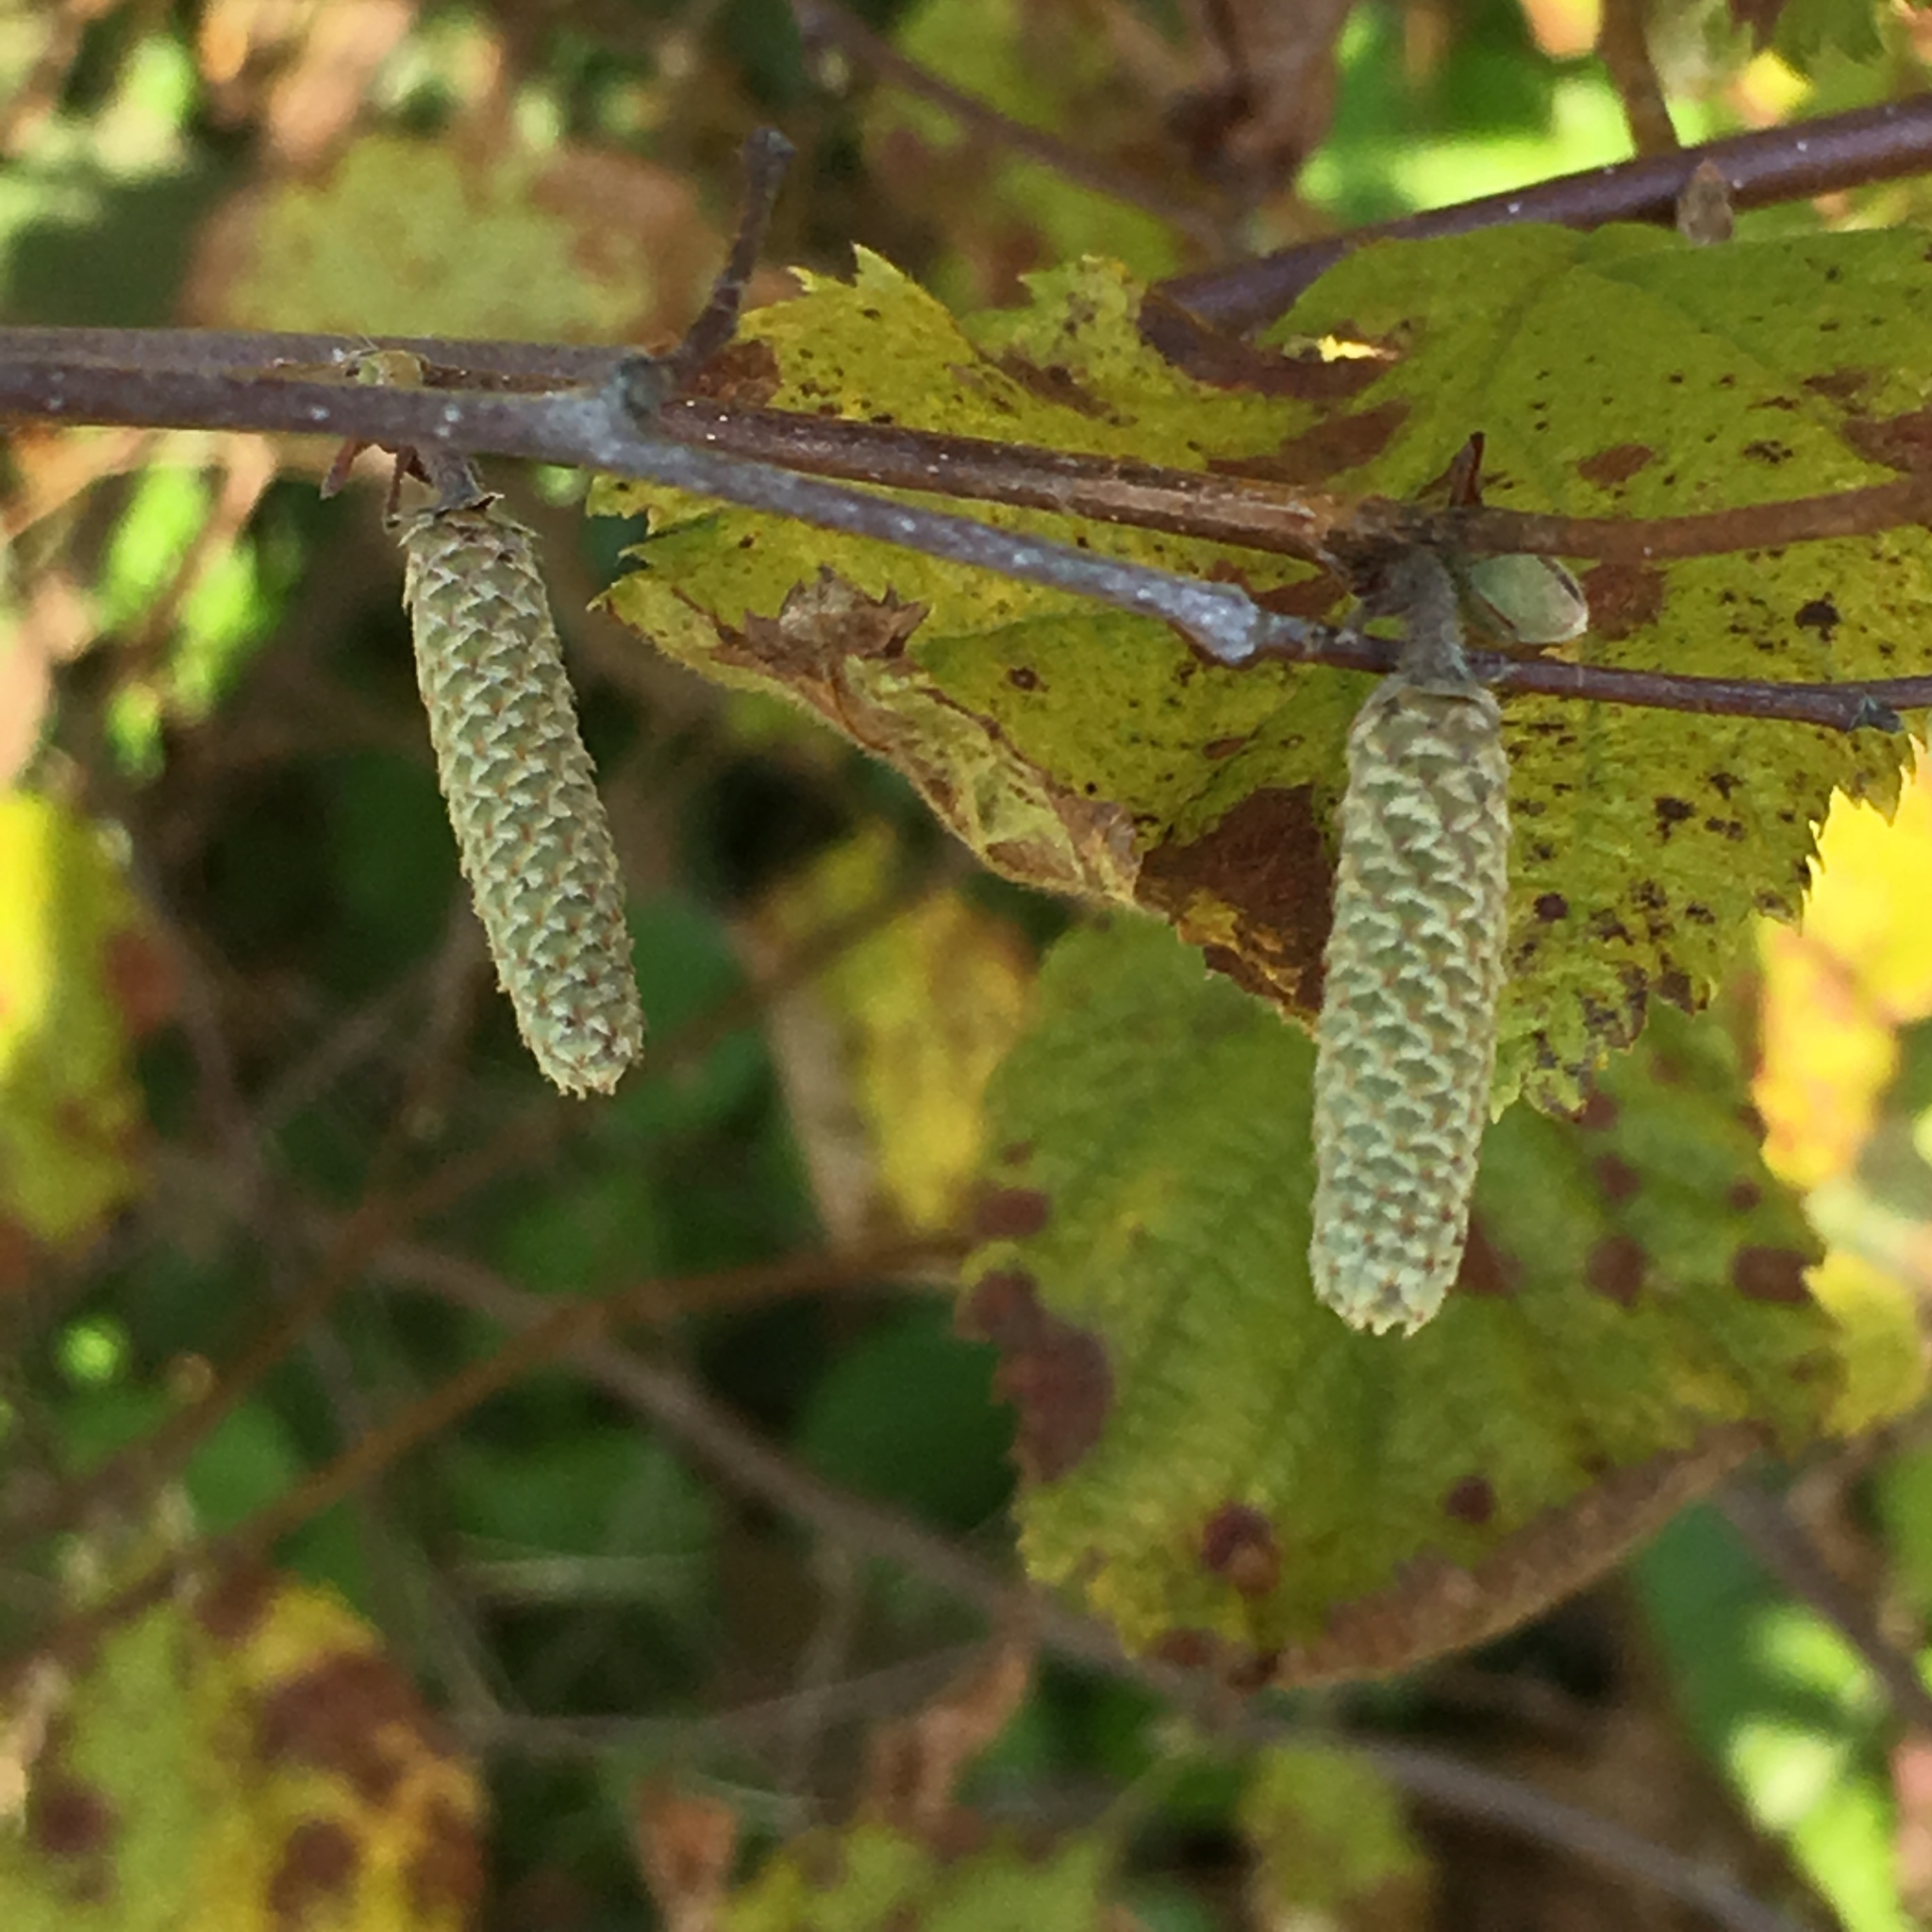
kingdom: Plantae
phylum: Tracheophyta
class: Magnoliopsida
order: Fagales
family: Betulaceae
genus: Corylus
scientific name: Corylus cornuta
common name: Beaked hazel
